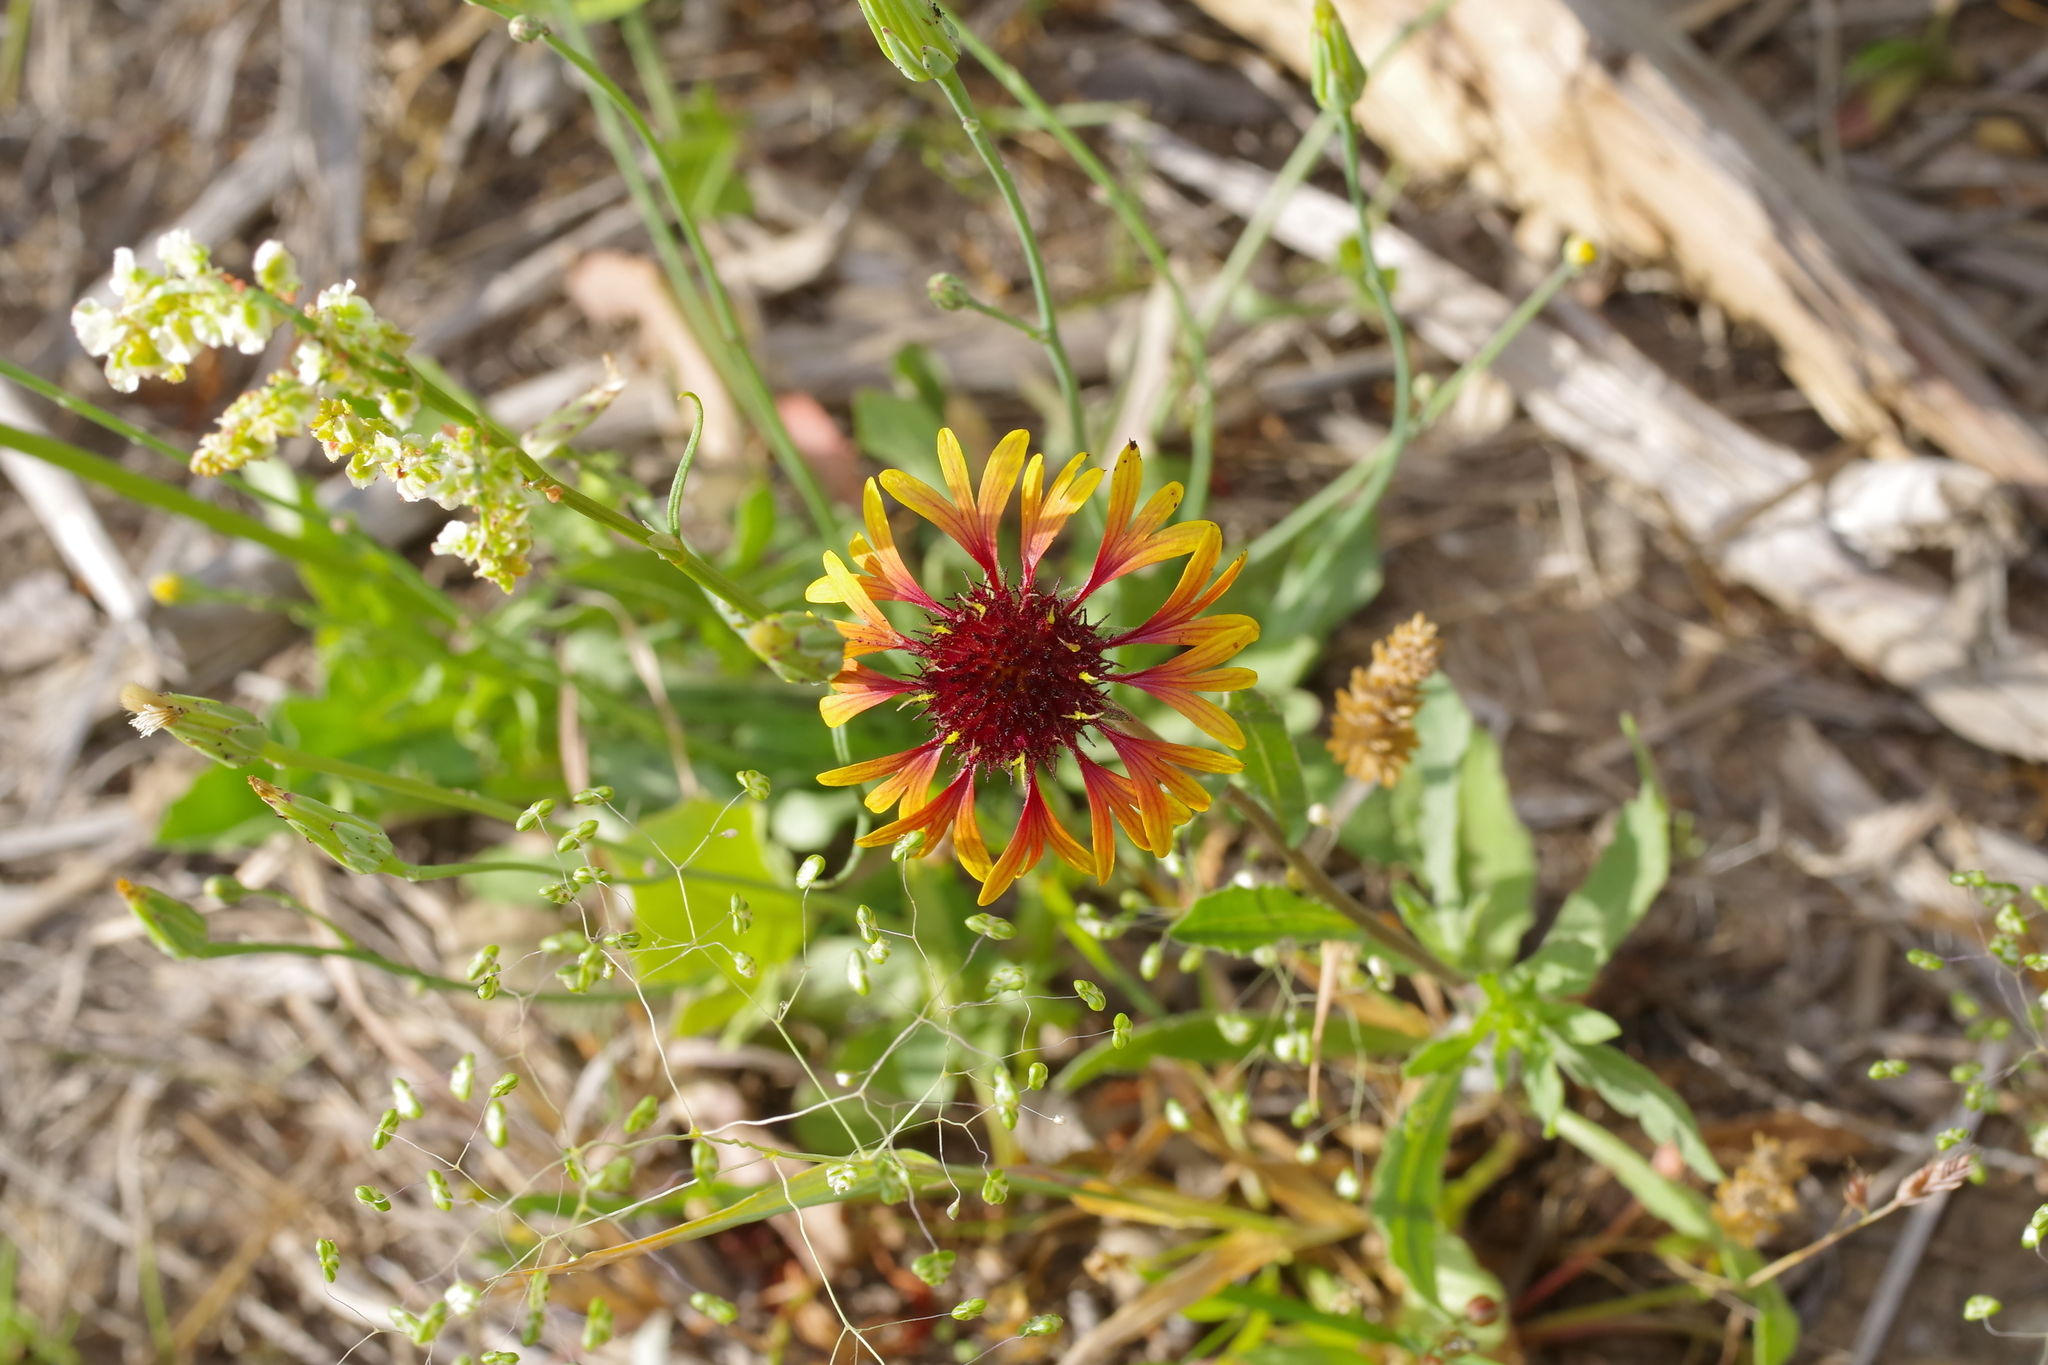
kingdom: Plantae
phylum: Tracheophyta
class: Magnoliopsida
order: Asterales
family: Asteraceae
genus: Gaillardia
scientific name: Gaillardia aestivalis
